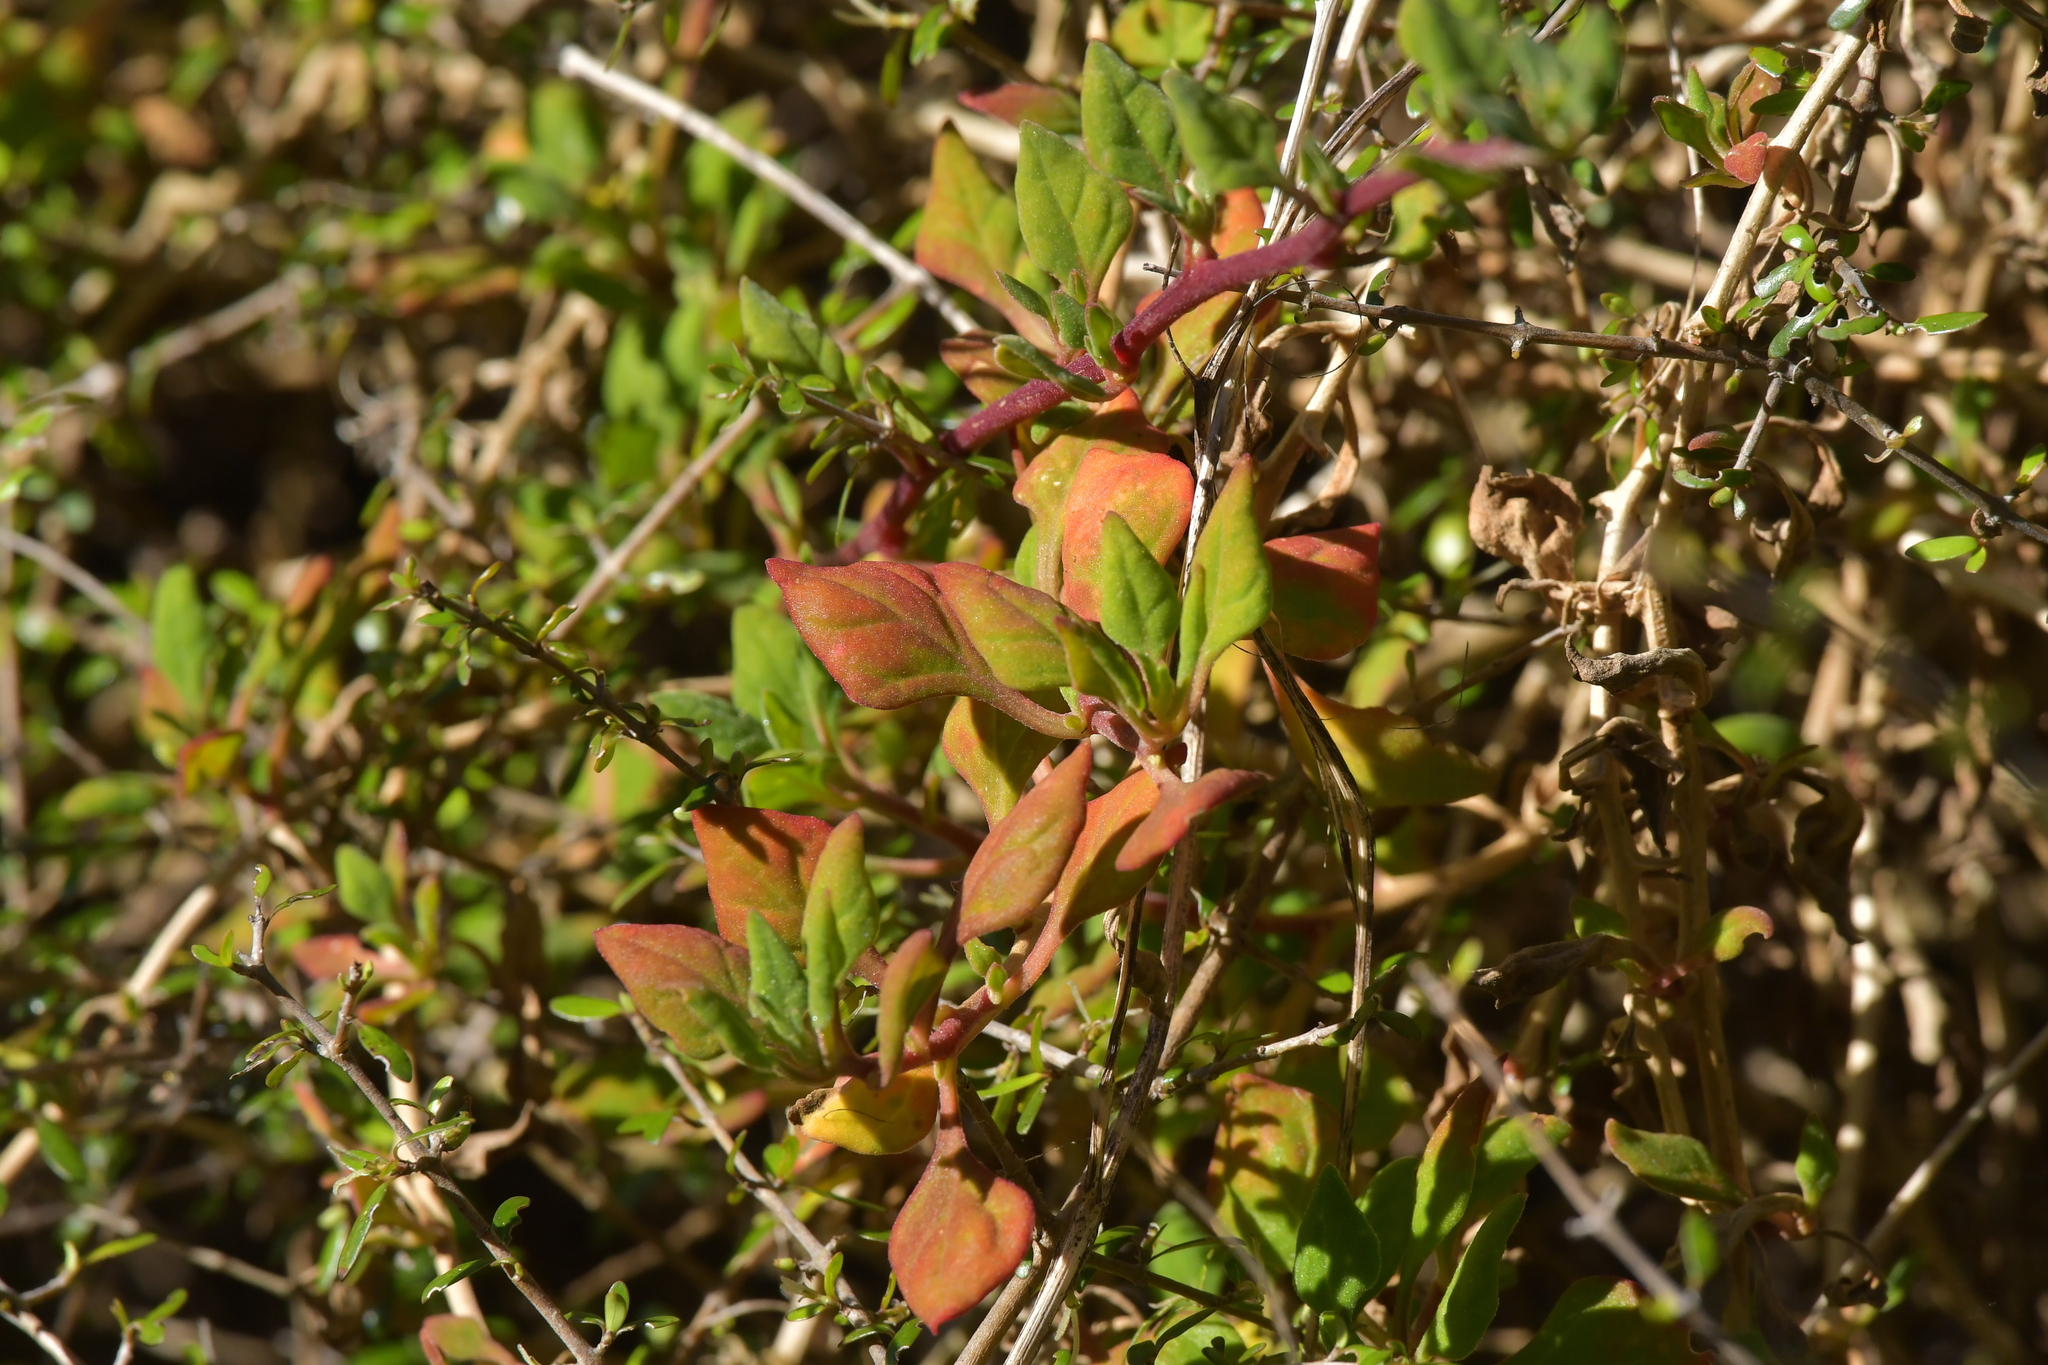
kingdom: Plantae
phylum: Tracheophyta
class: Magnoliopsida
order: Caryophyllales
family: Aizoaceae
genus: Tetragonia
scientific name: Tetragonia implexicoma
